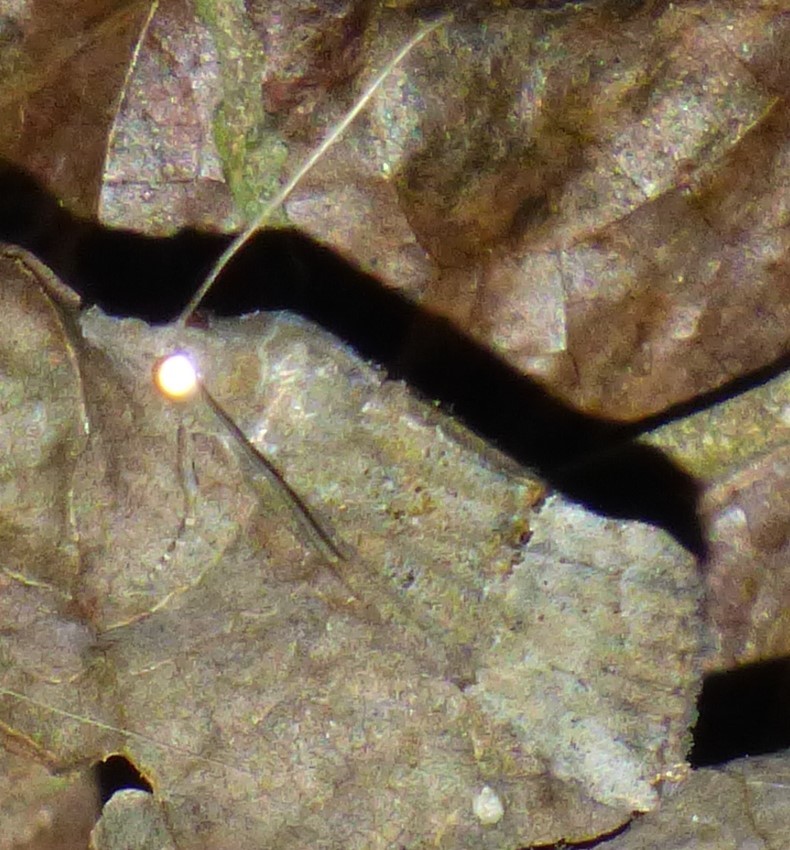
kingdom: Animalia
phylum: Arthropoda
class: Insecta
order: Lepidoptera
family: Erebidae
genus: Hypena
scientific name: Hypena scabra
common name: Green cloverworm
